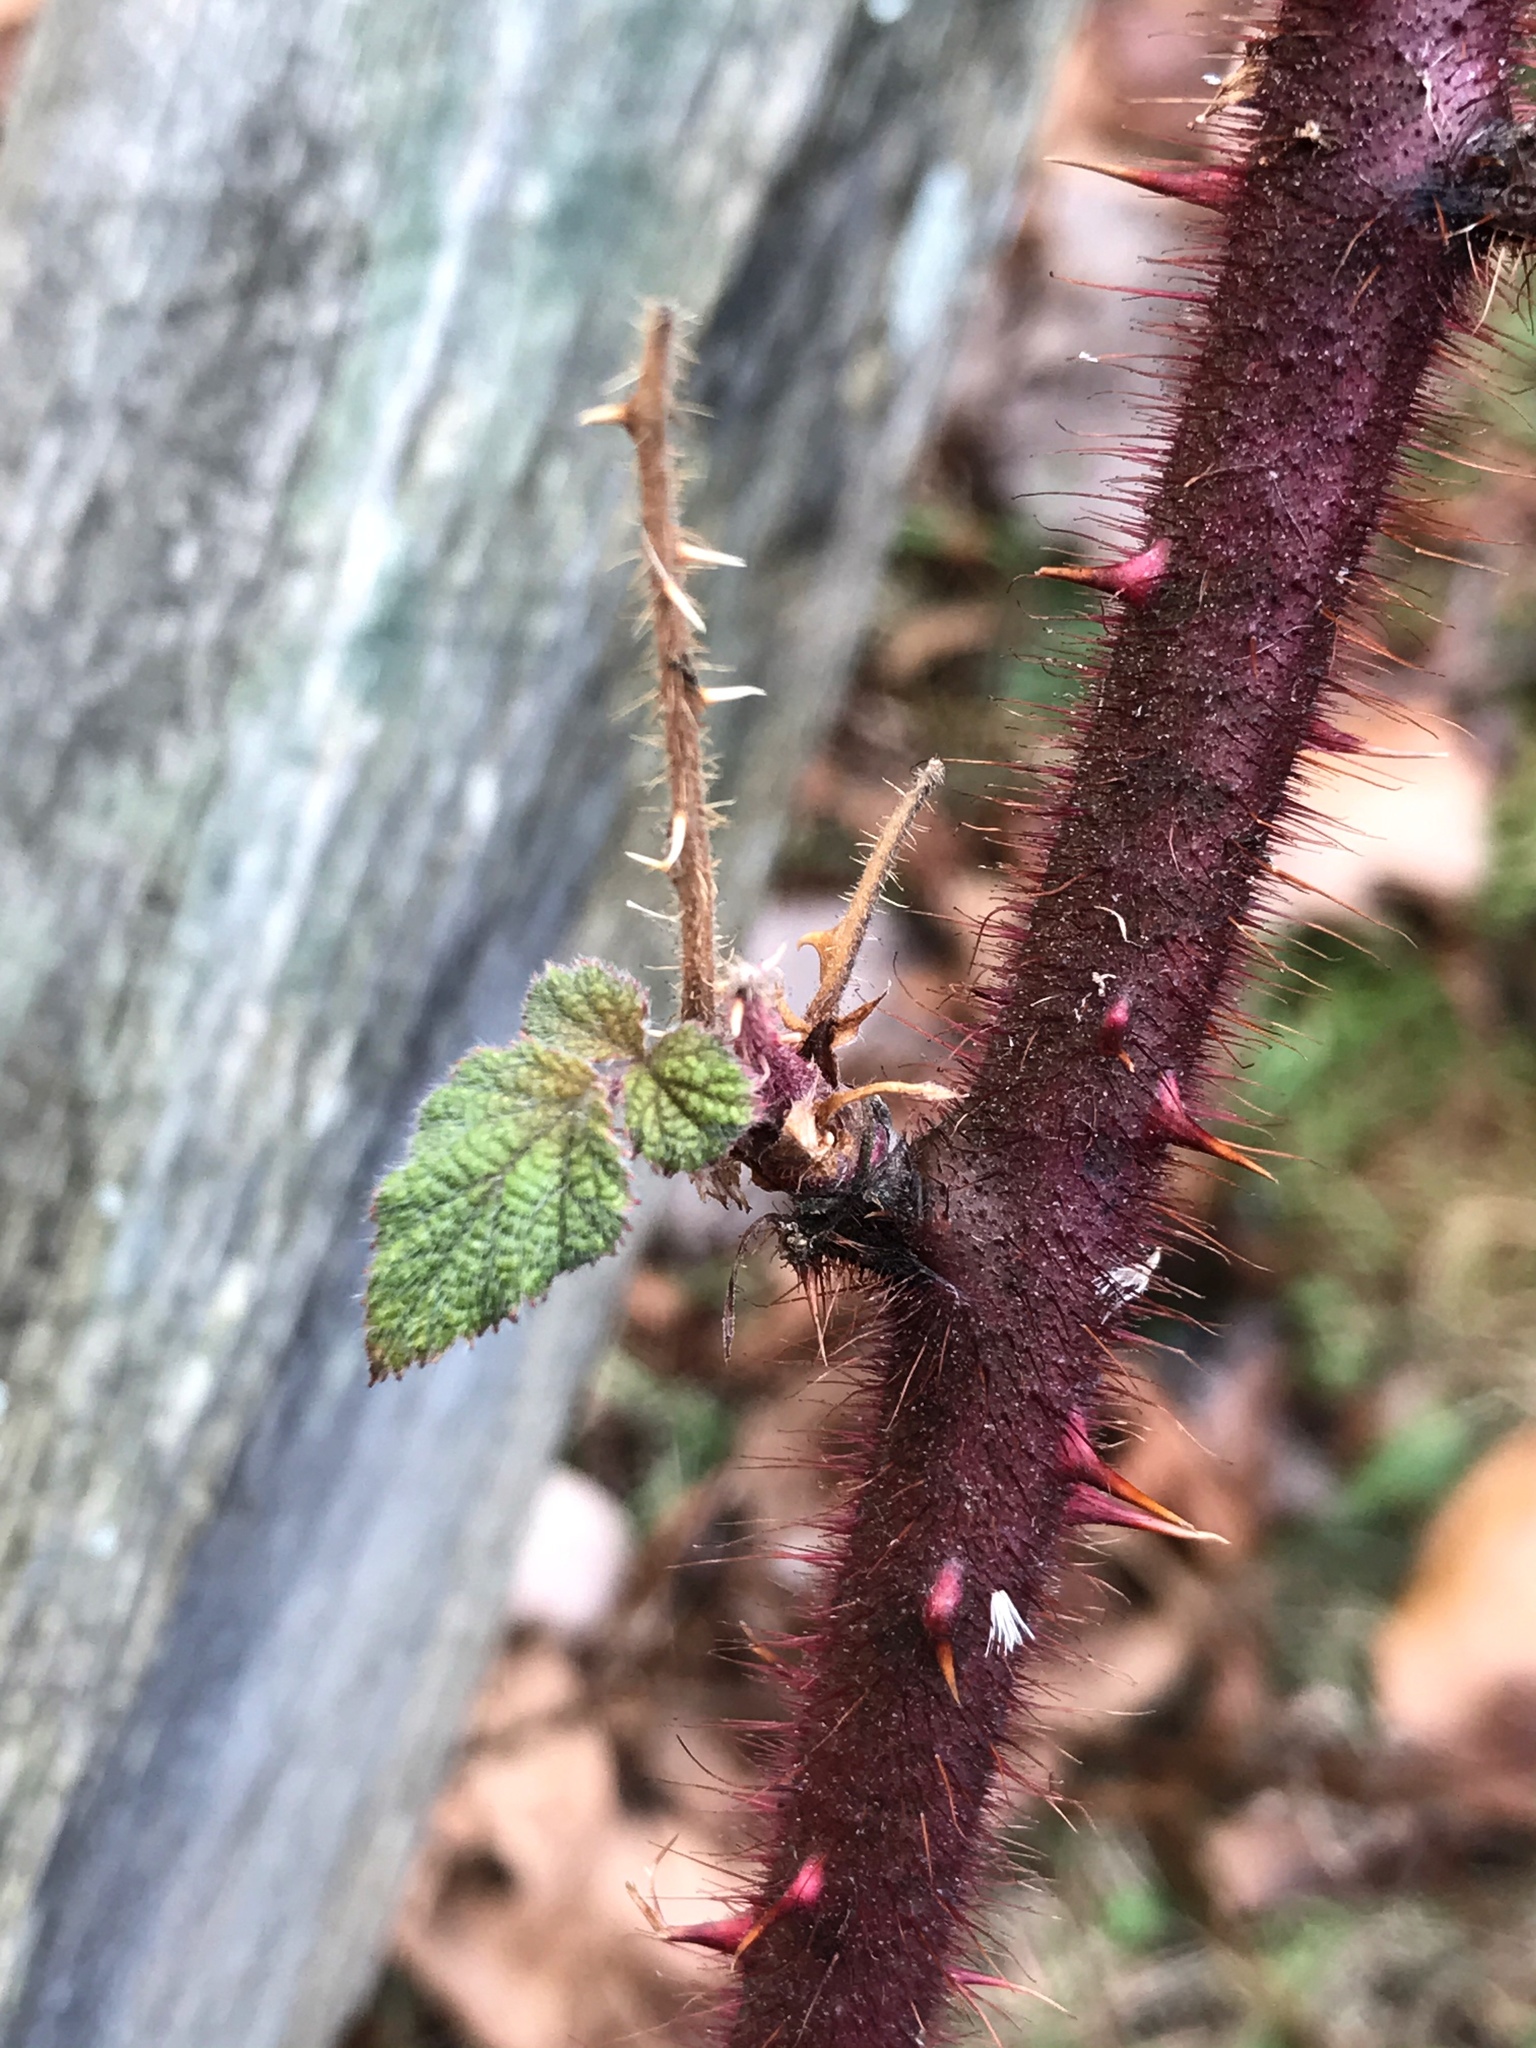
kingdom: Plantae
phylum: Tracheophyta
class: Magnoliopsida
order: Rosales
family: Rosaceae
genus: Rubus
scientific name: Rubus phoenicolasius
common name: Japanese wineberry
